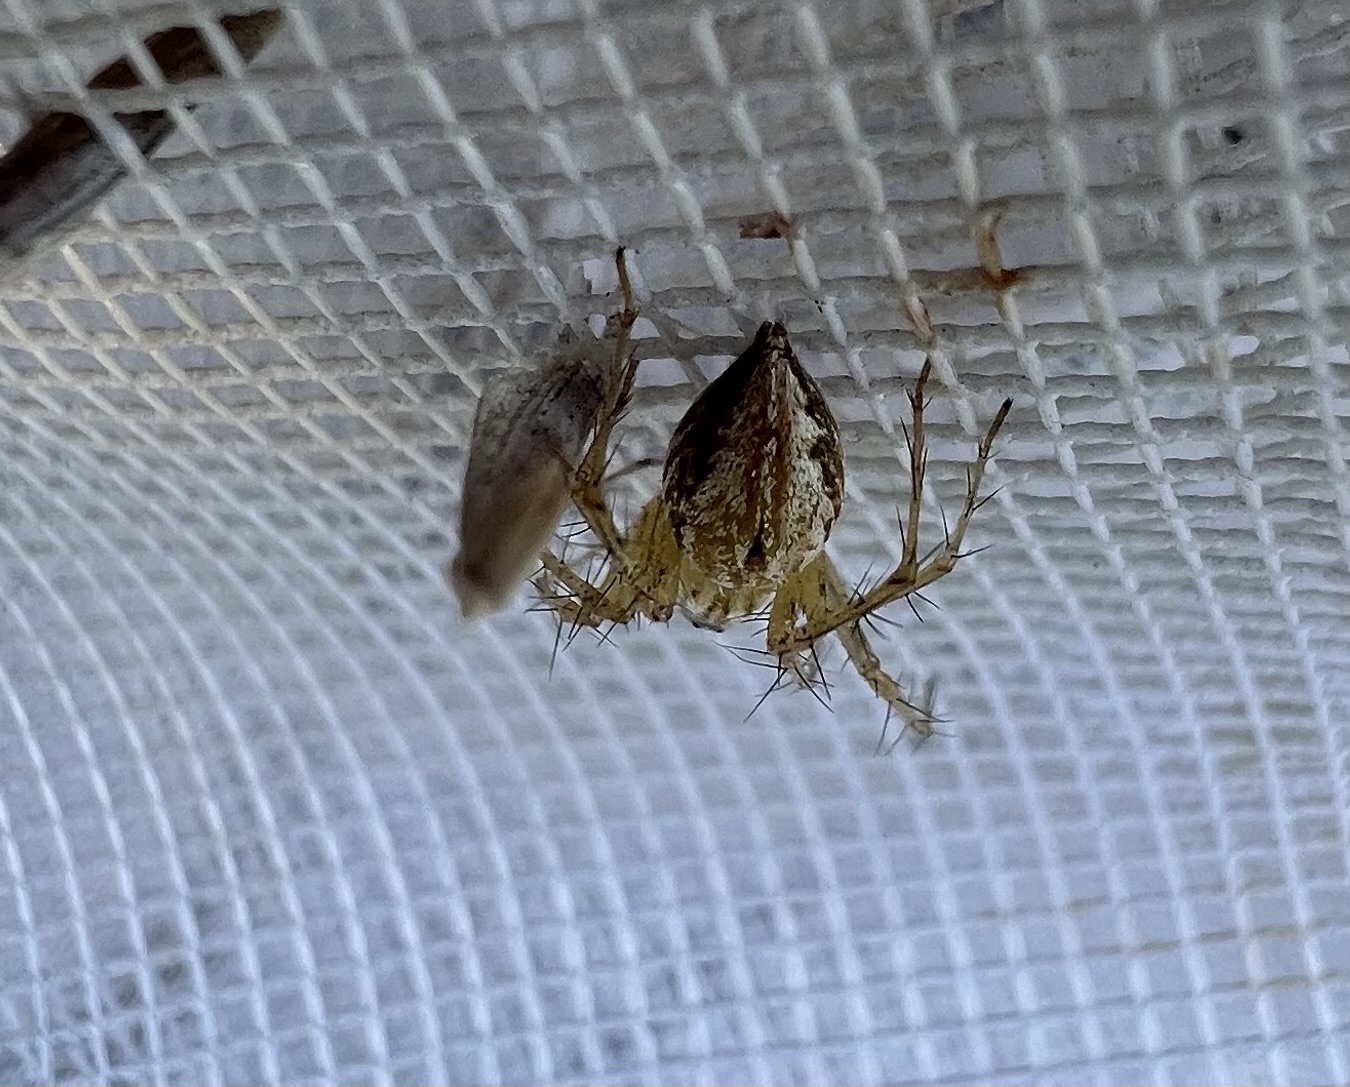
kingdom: Animalia
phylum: Arthropoda
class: Arachnida
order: Araneae
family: Oxyopidae
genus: Oxyopes
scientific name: Oxyopes salticus
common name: Lynx spiders
